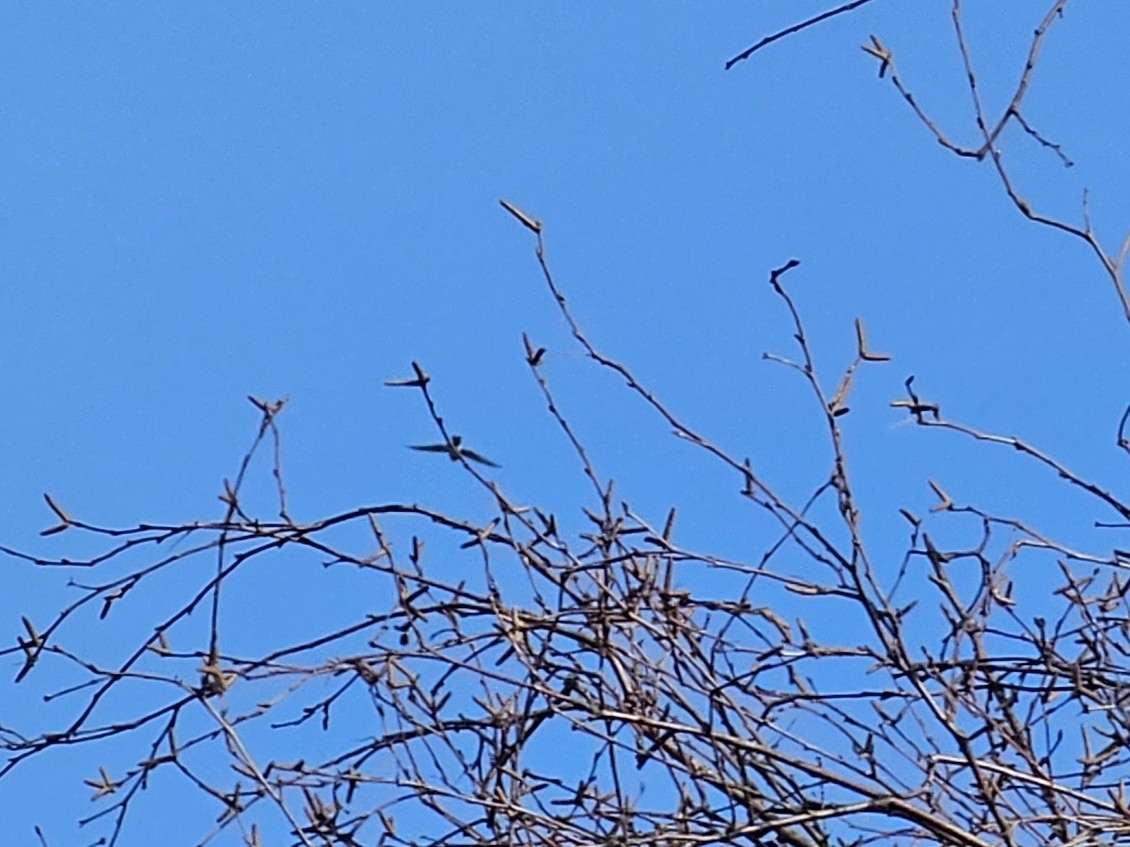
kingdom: Animalia
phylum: Chordata
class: Aves
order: Accipitriformes
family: Accipitridae
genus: Accipiter
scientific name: Accipiter nisus
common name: Eurasian sparrowhawk
